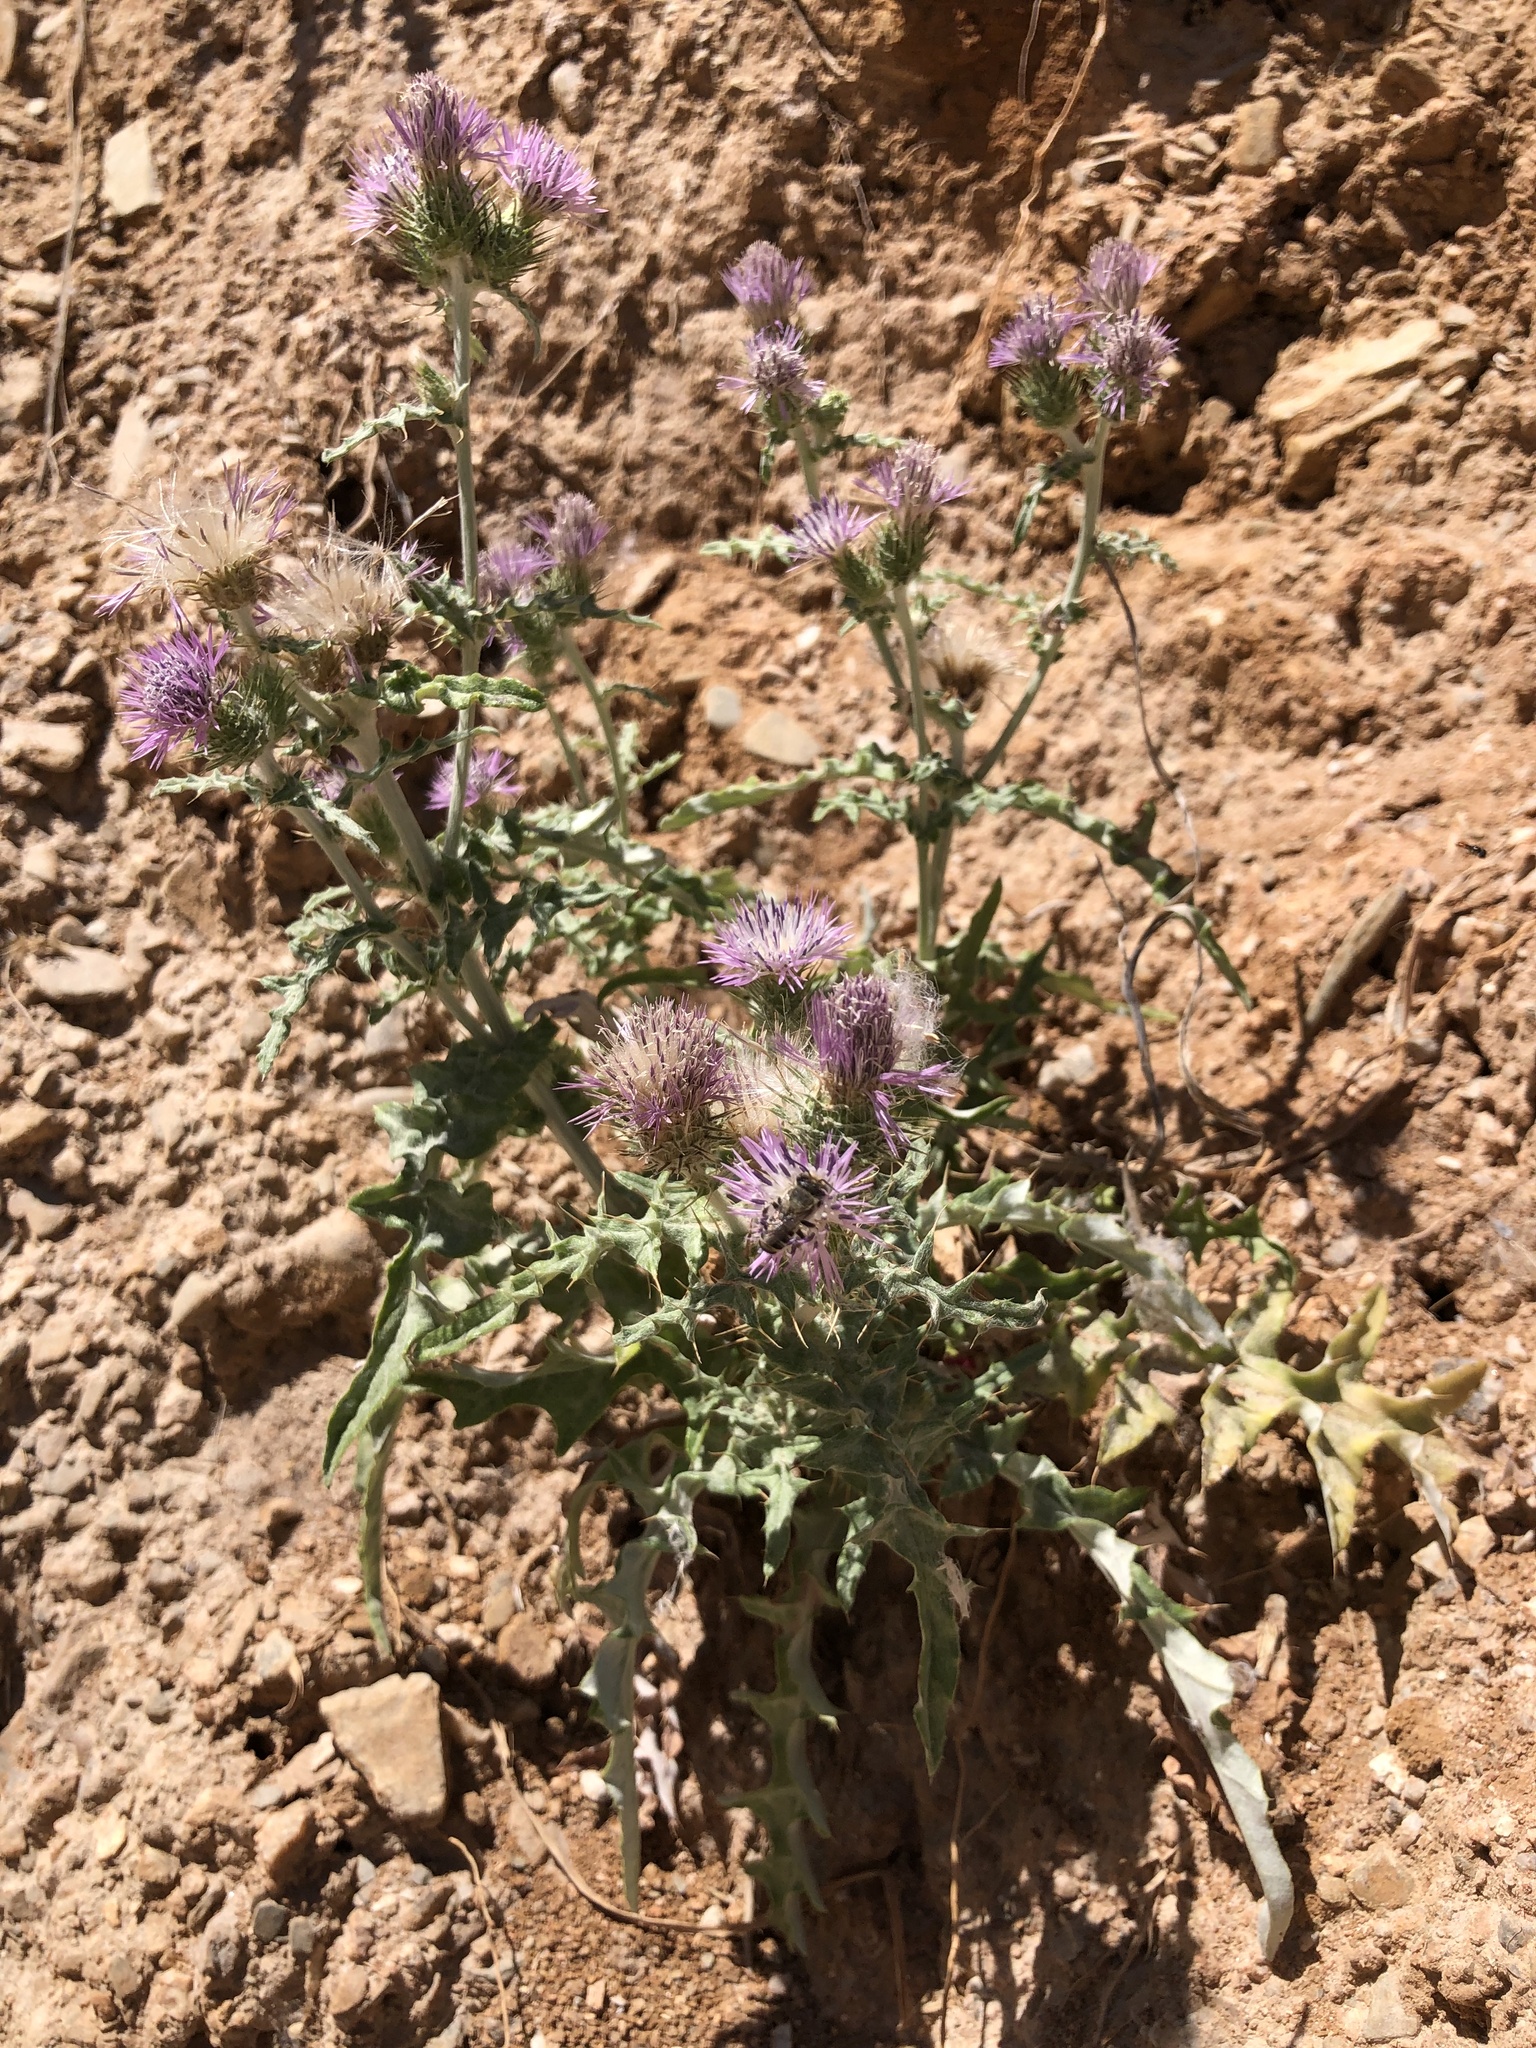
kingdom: Plantae
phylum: Tracheophyta
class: Magnoliopsida
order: Asterales
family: Asteraceae
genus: Galactites
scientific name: Galactites tomentosa
